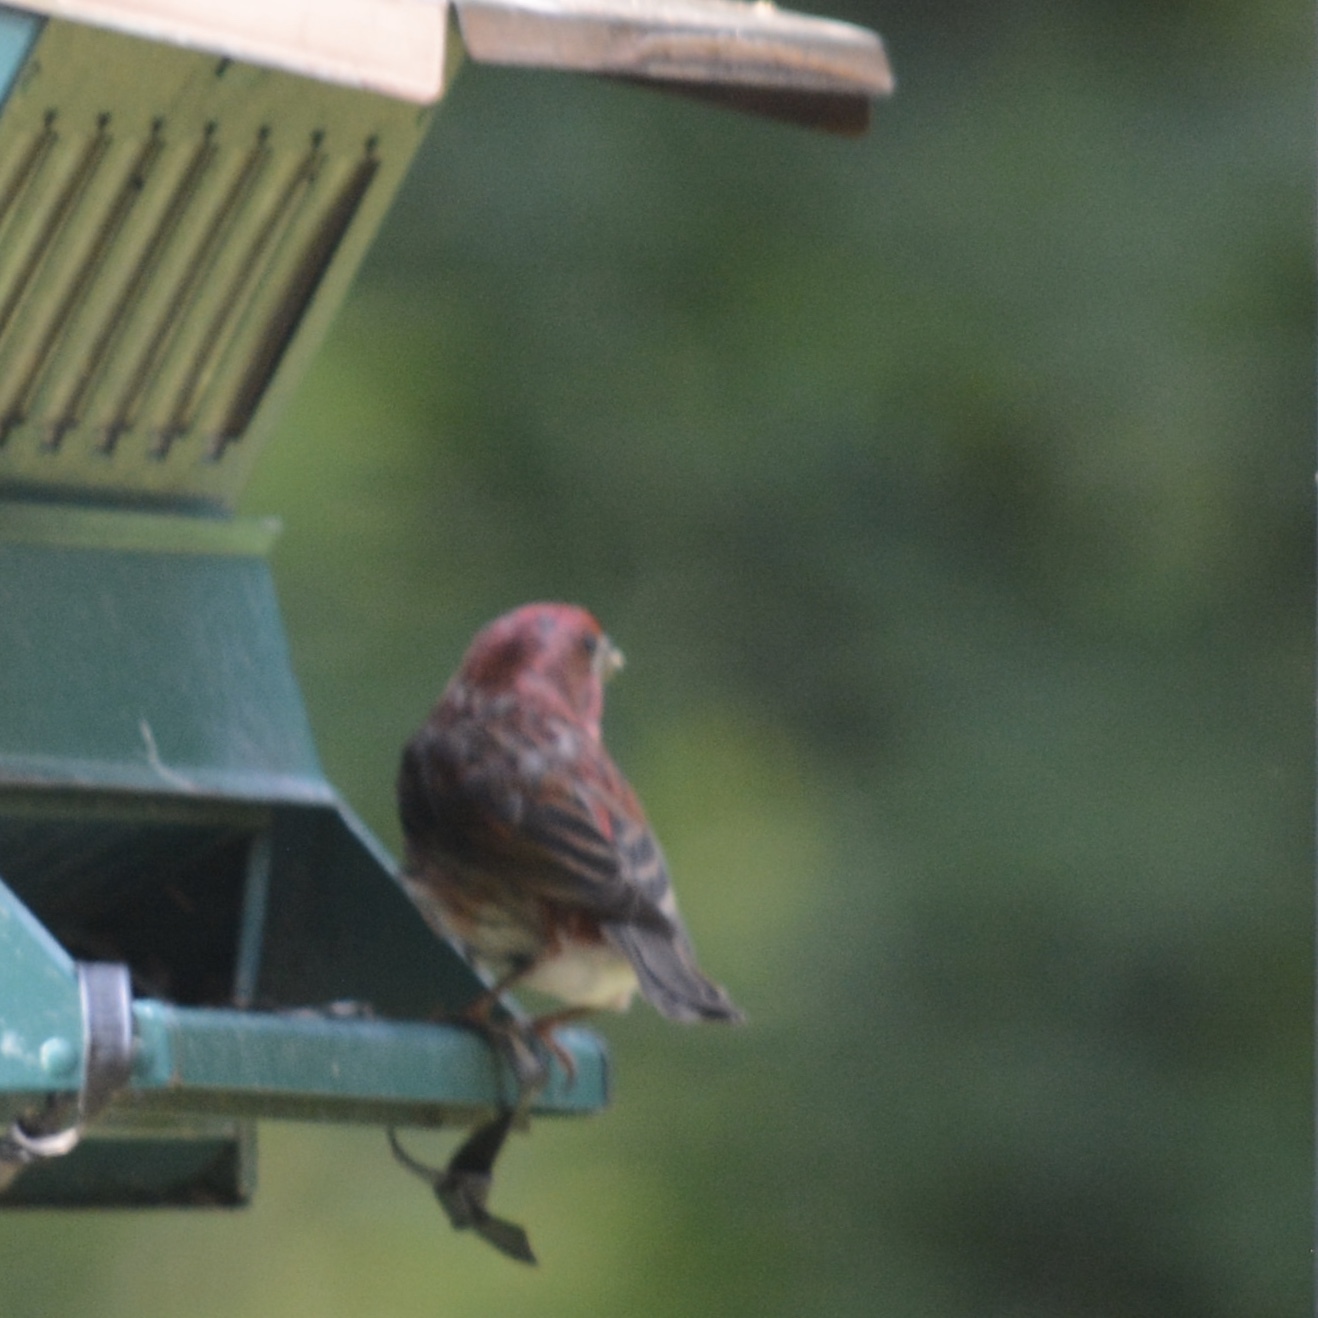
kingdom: Animalia
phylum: Chordata
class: Aves
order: Passeriformes
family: Fringillidae
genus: Haemorhous
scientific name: Haemorhous purpureus
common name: Purple finch
